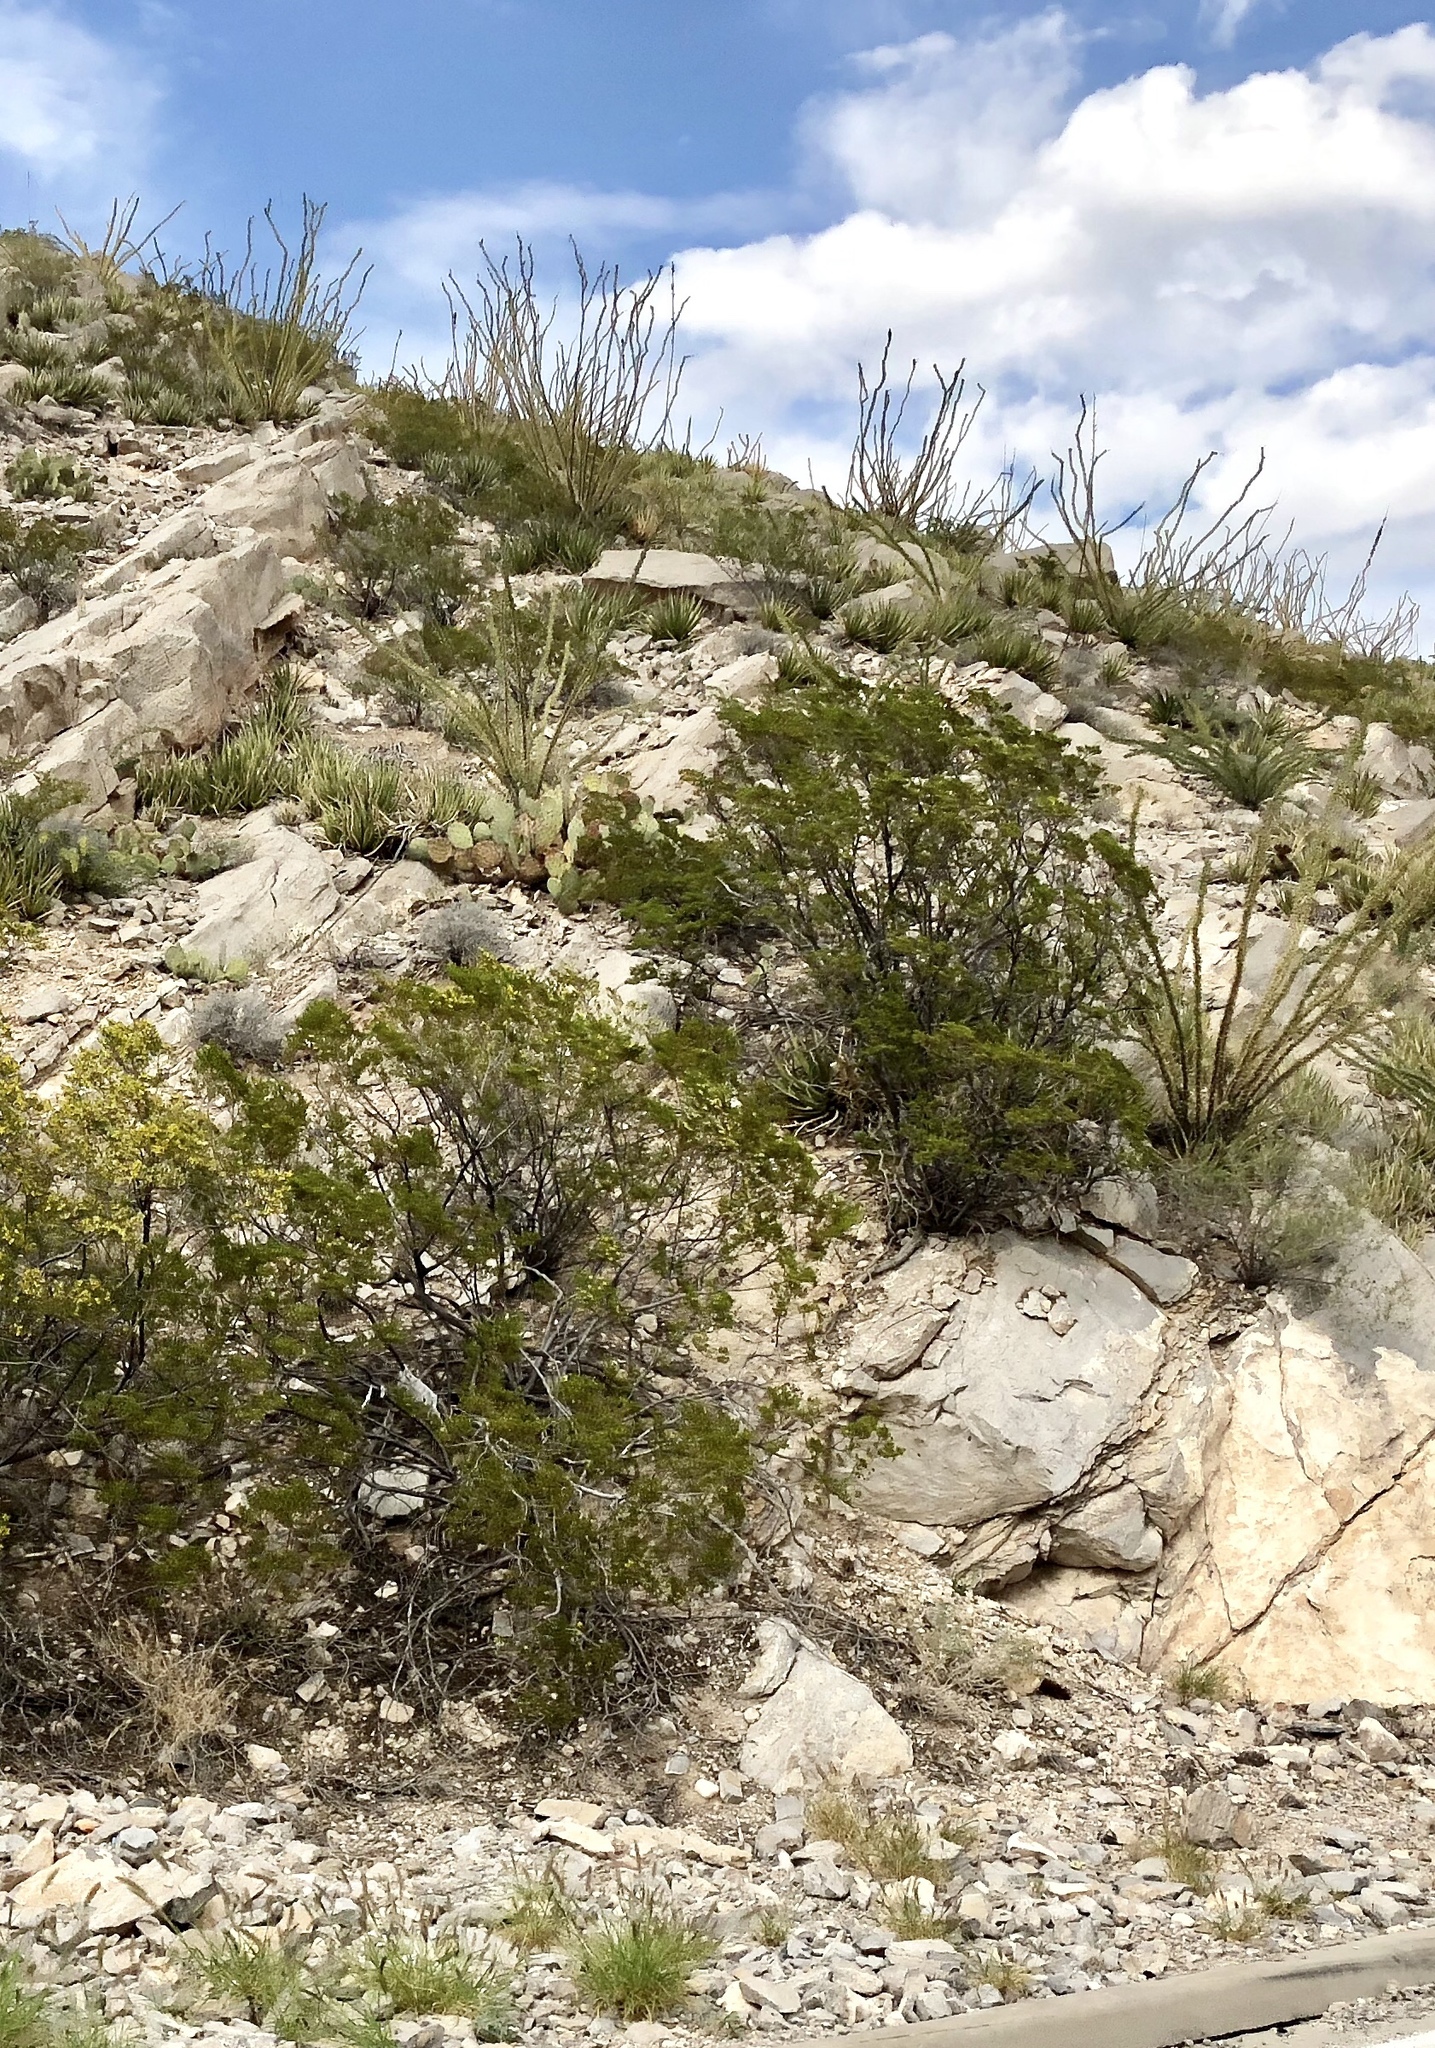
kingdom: Plantae
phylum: Tracheophyta
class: Magnoliopsida
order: Zygophyllales
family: Zygophyllaceae
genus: Larrea
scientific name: Larrea tridentata
